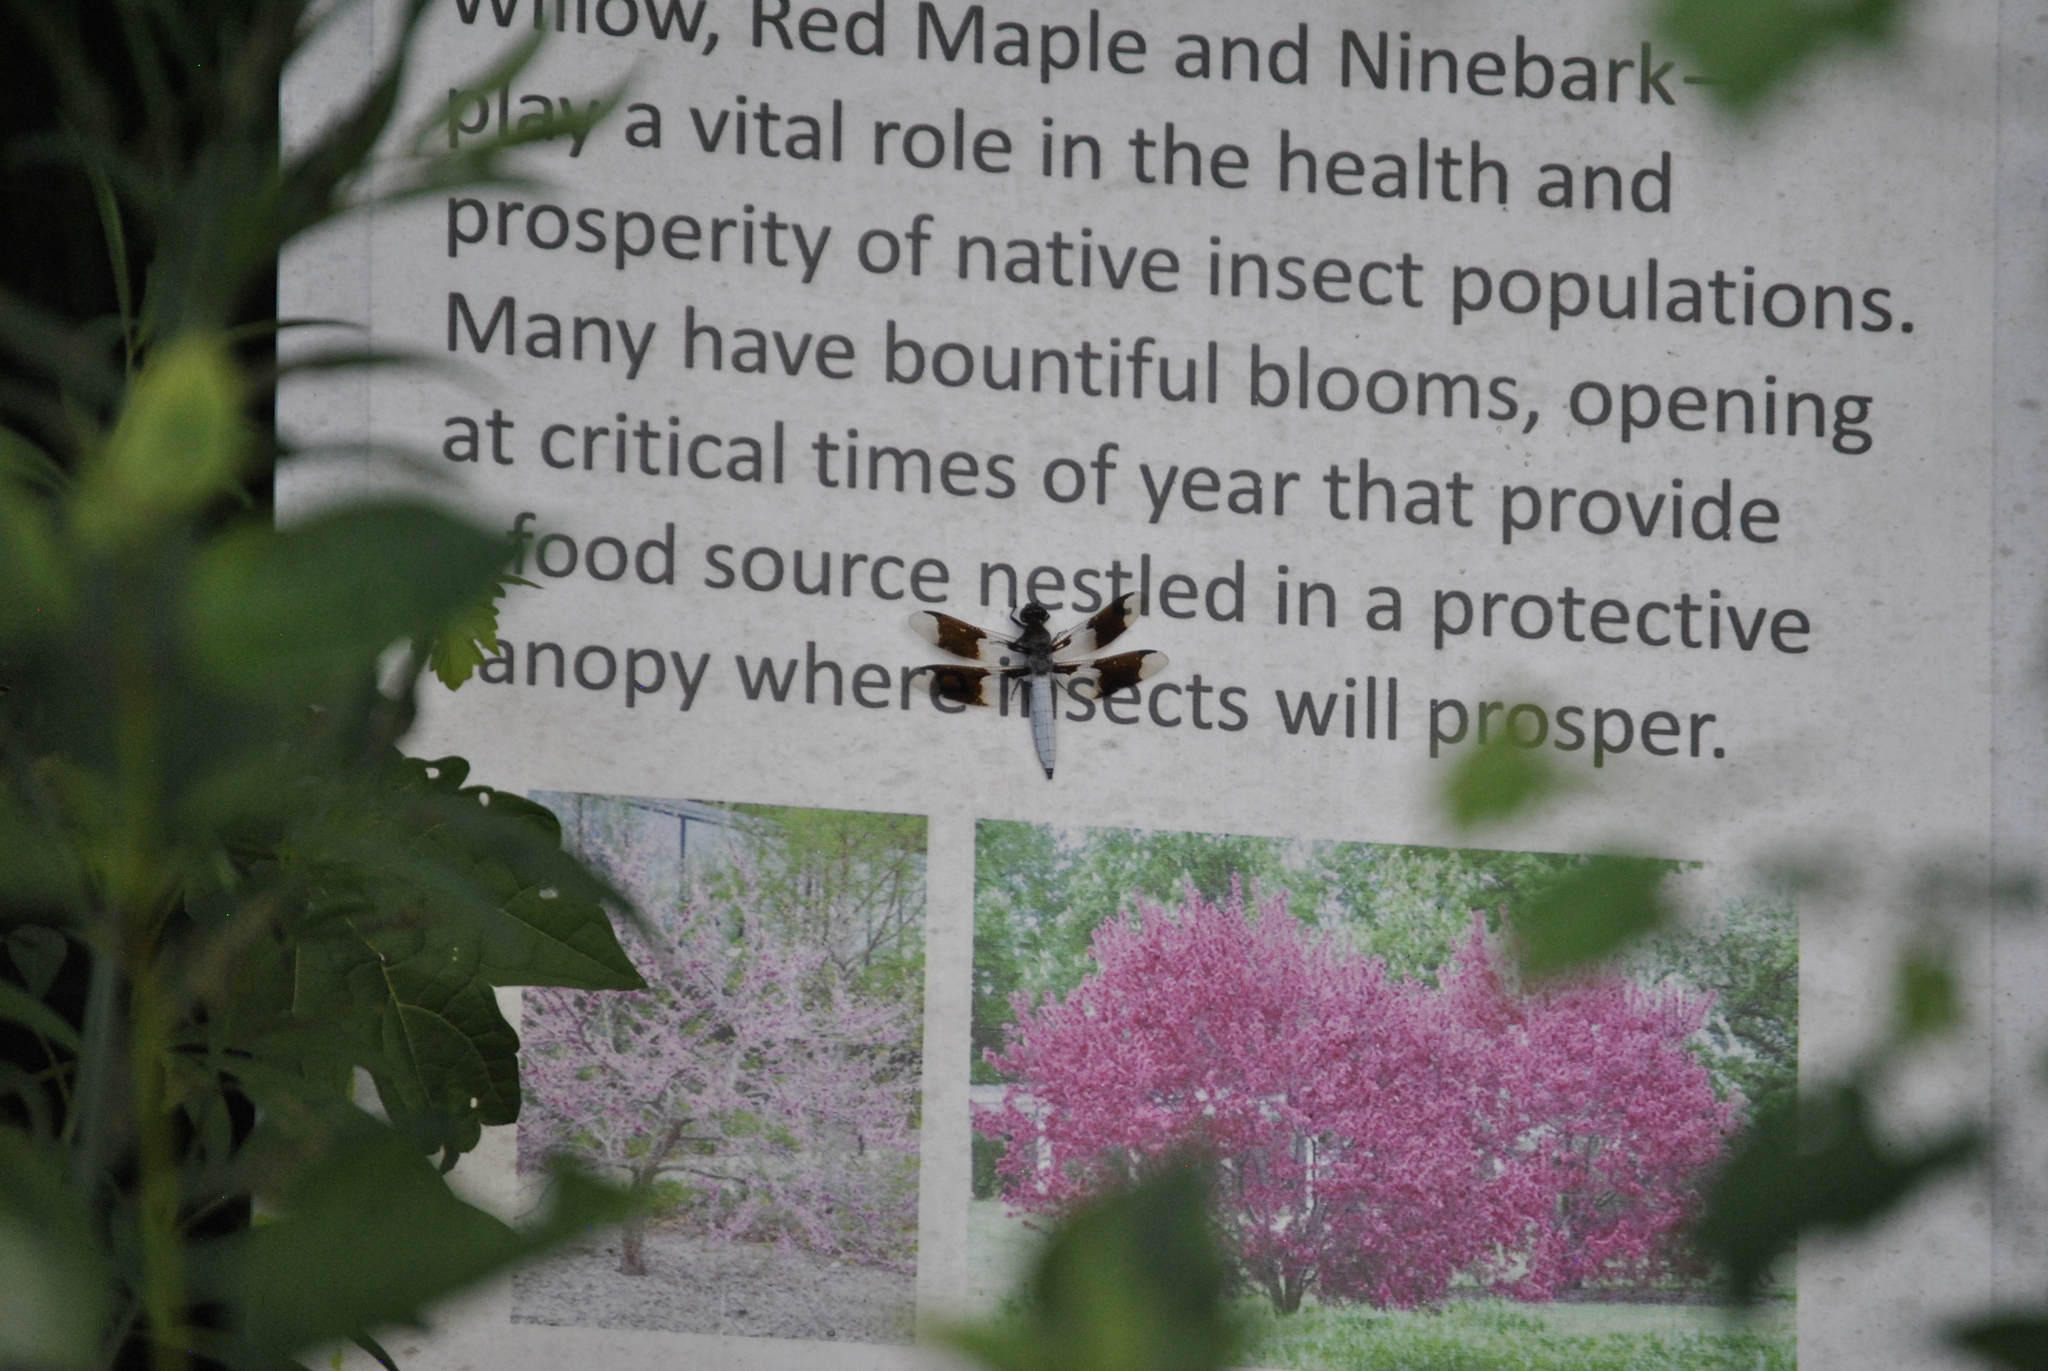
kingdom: Animalia
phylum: Arthropoda
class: Insecta
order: Odonata
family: Libellulidae
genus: Plathemis
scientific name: Plathemis lydia
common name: Common whitetail
